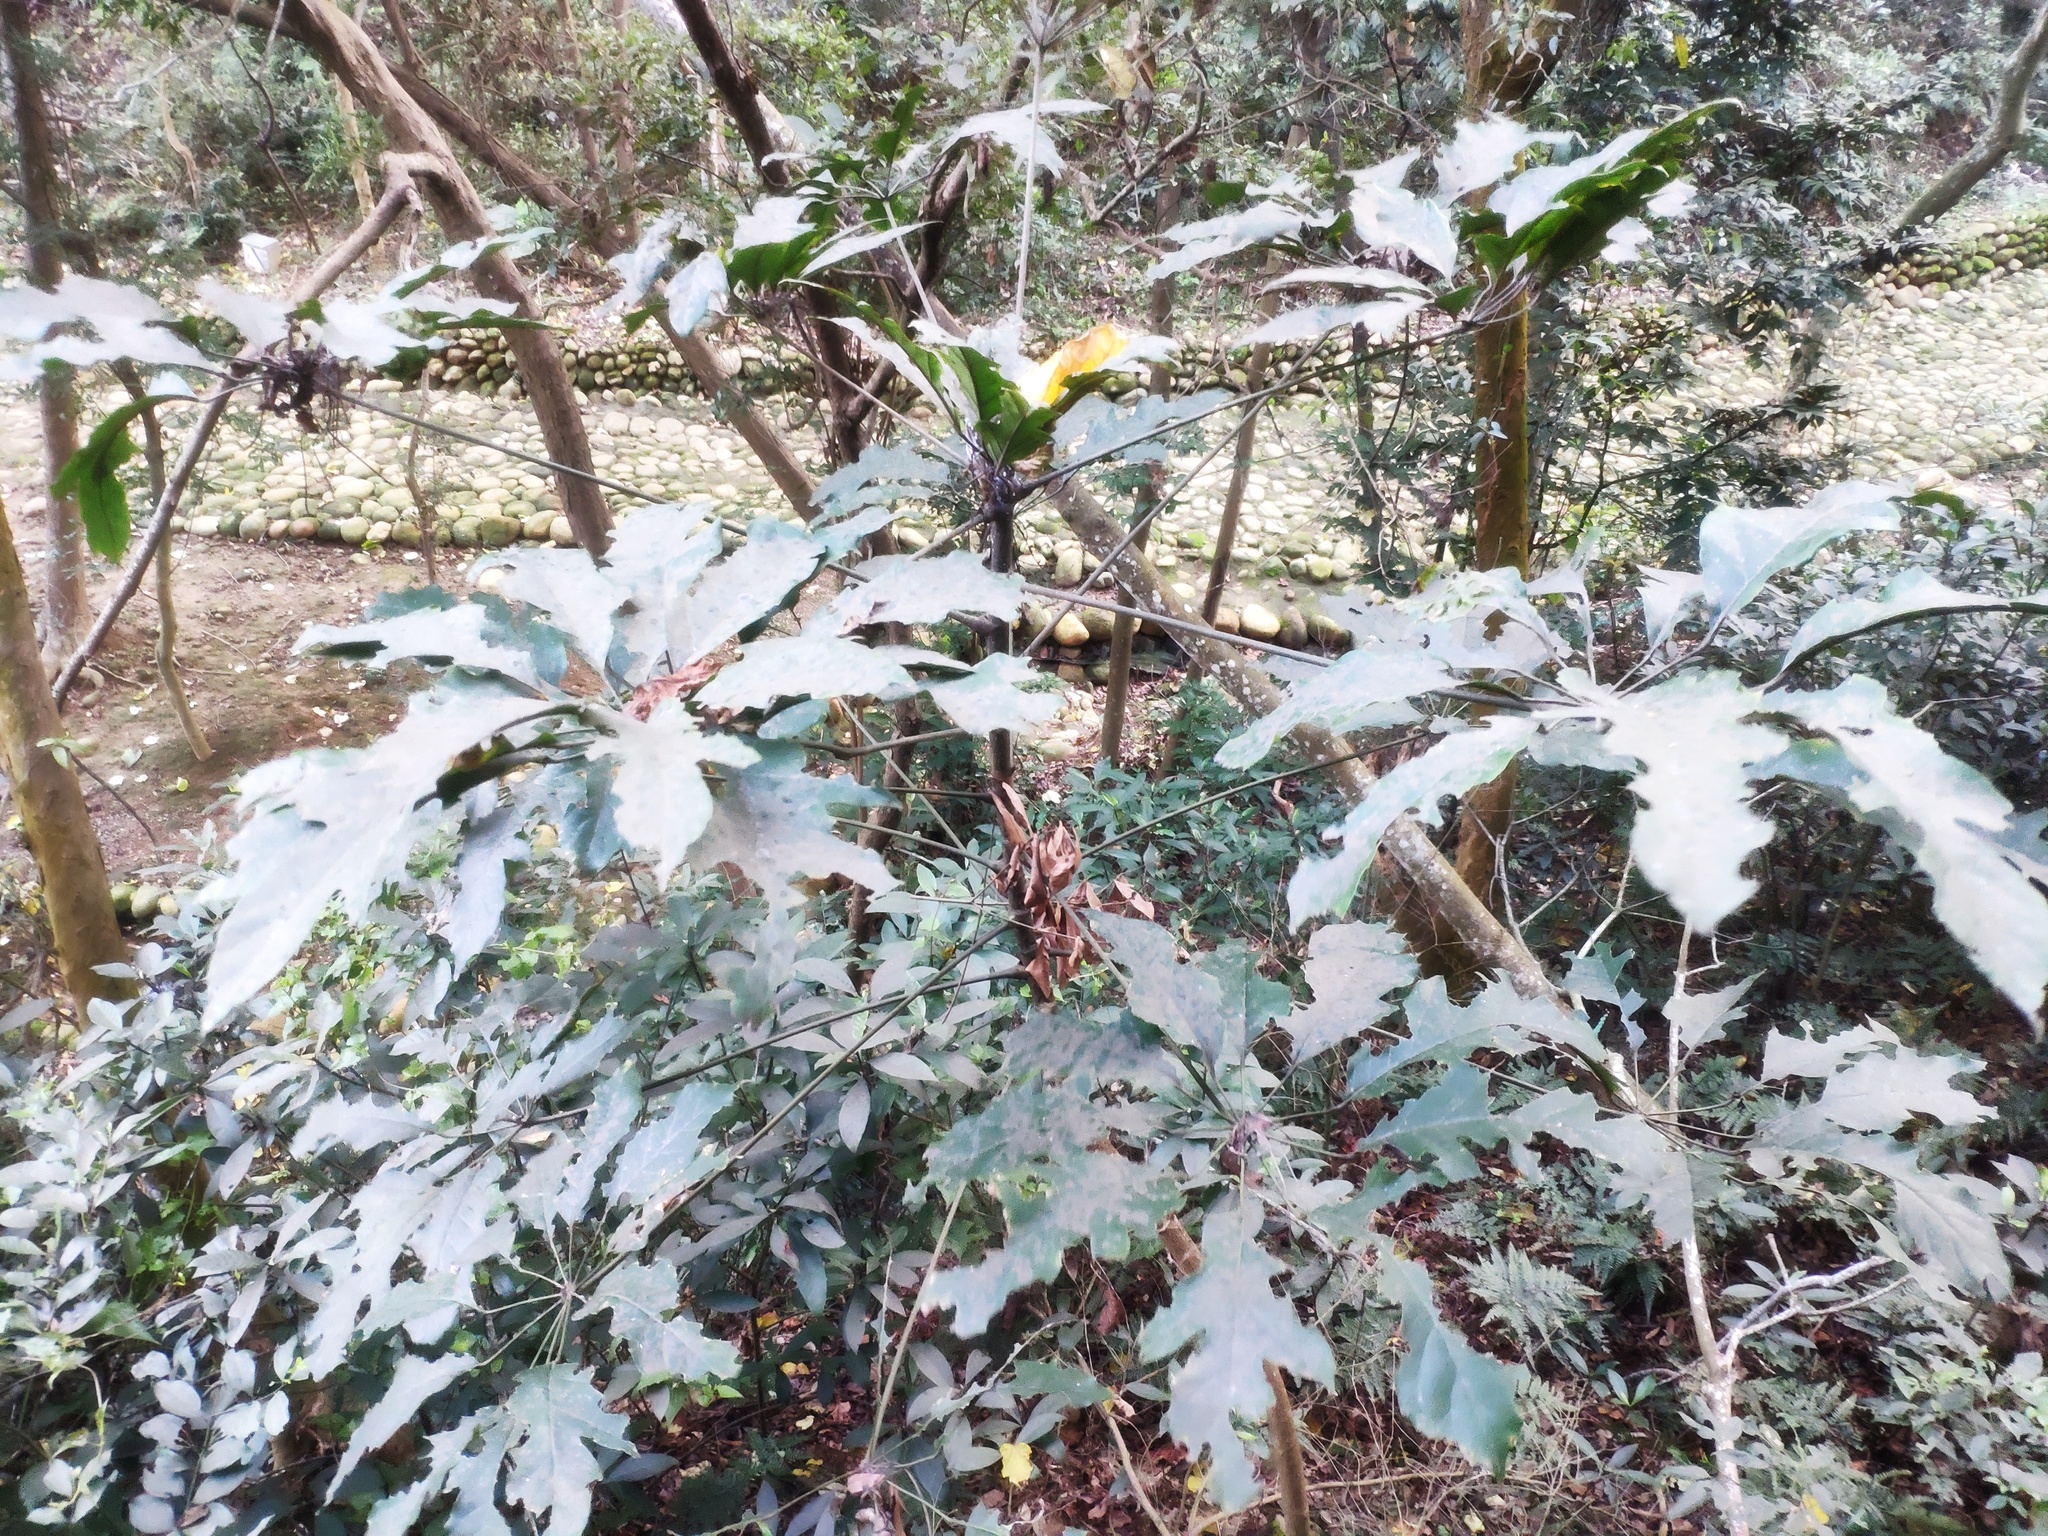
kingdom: Plantae
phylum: Tracheophyta
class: Magnoliopsida
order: Apiales
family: Araliaceae
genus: Heptapleurum
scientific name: Heptapleurum heptaphyllum
